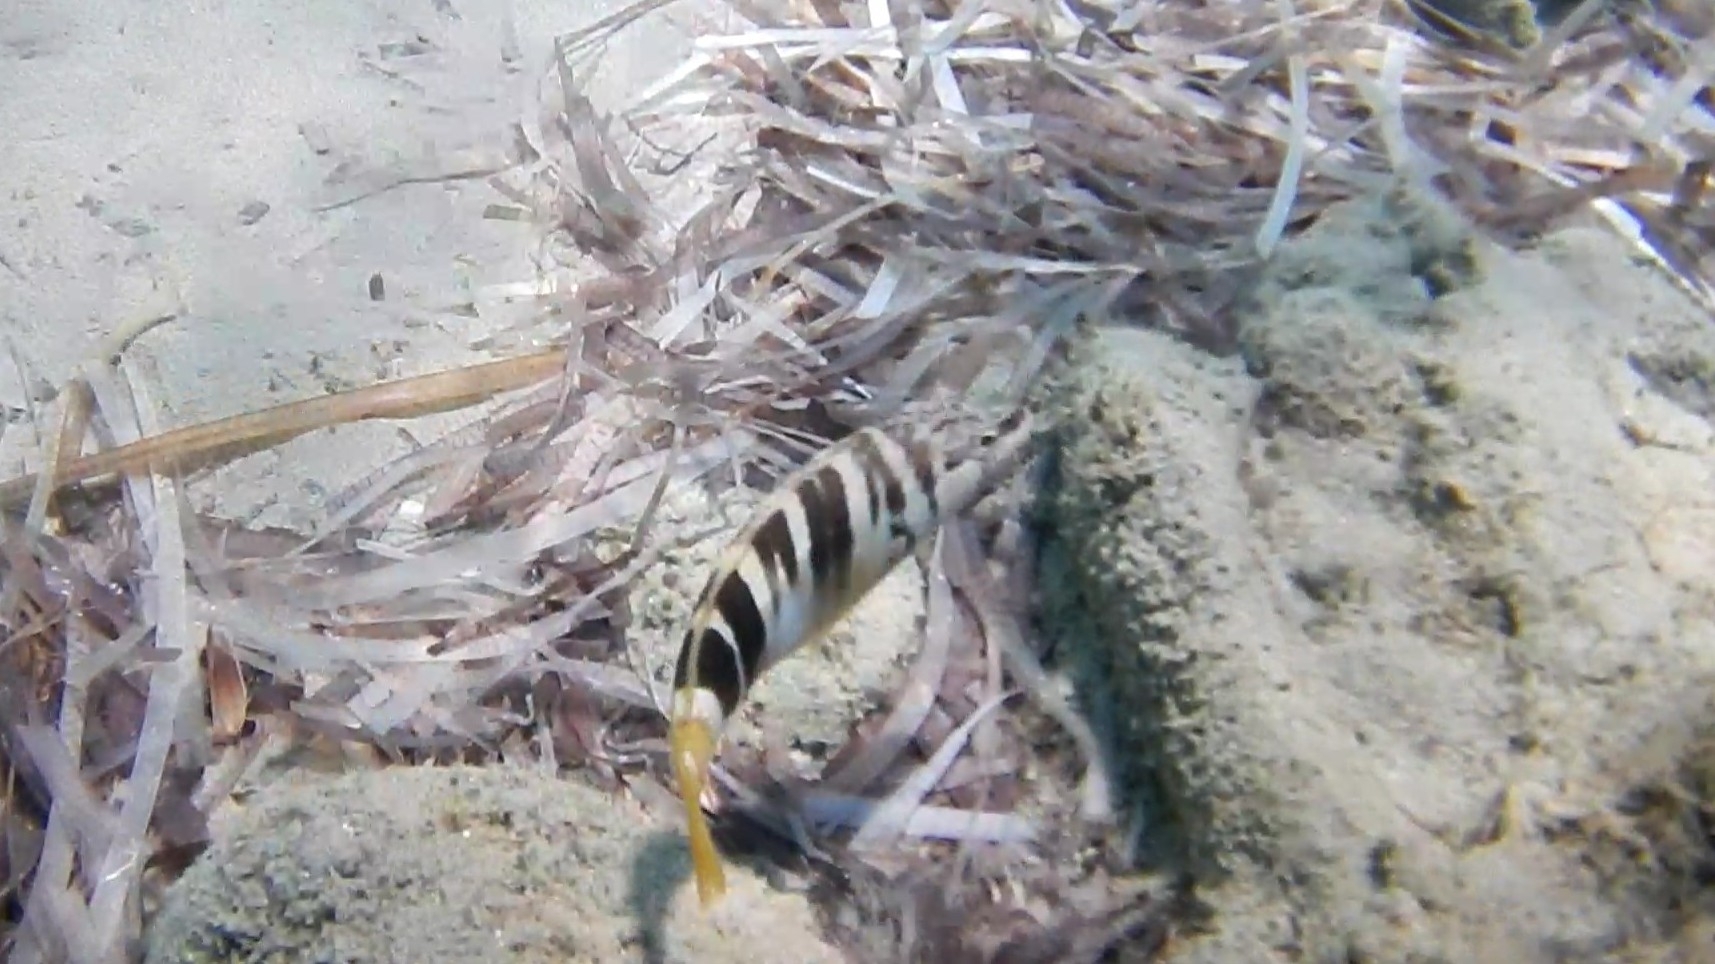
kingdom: Animalia
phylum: Chordata
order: Perciformes
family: Serranidae
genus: Serranus
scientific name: Serranus scriba
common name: Painted comber
